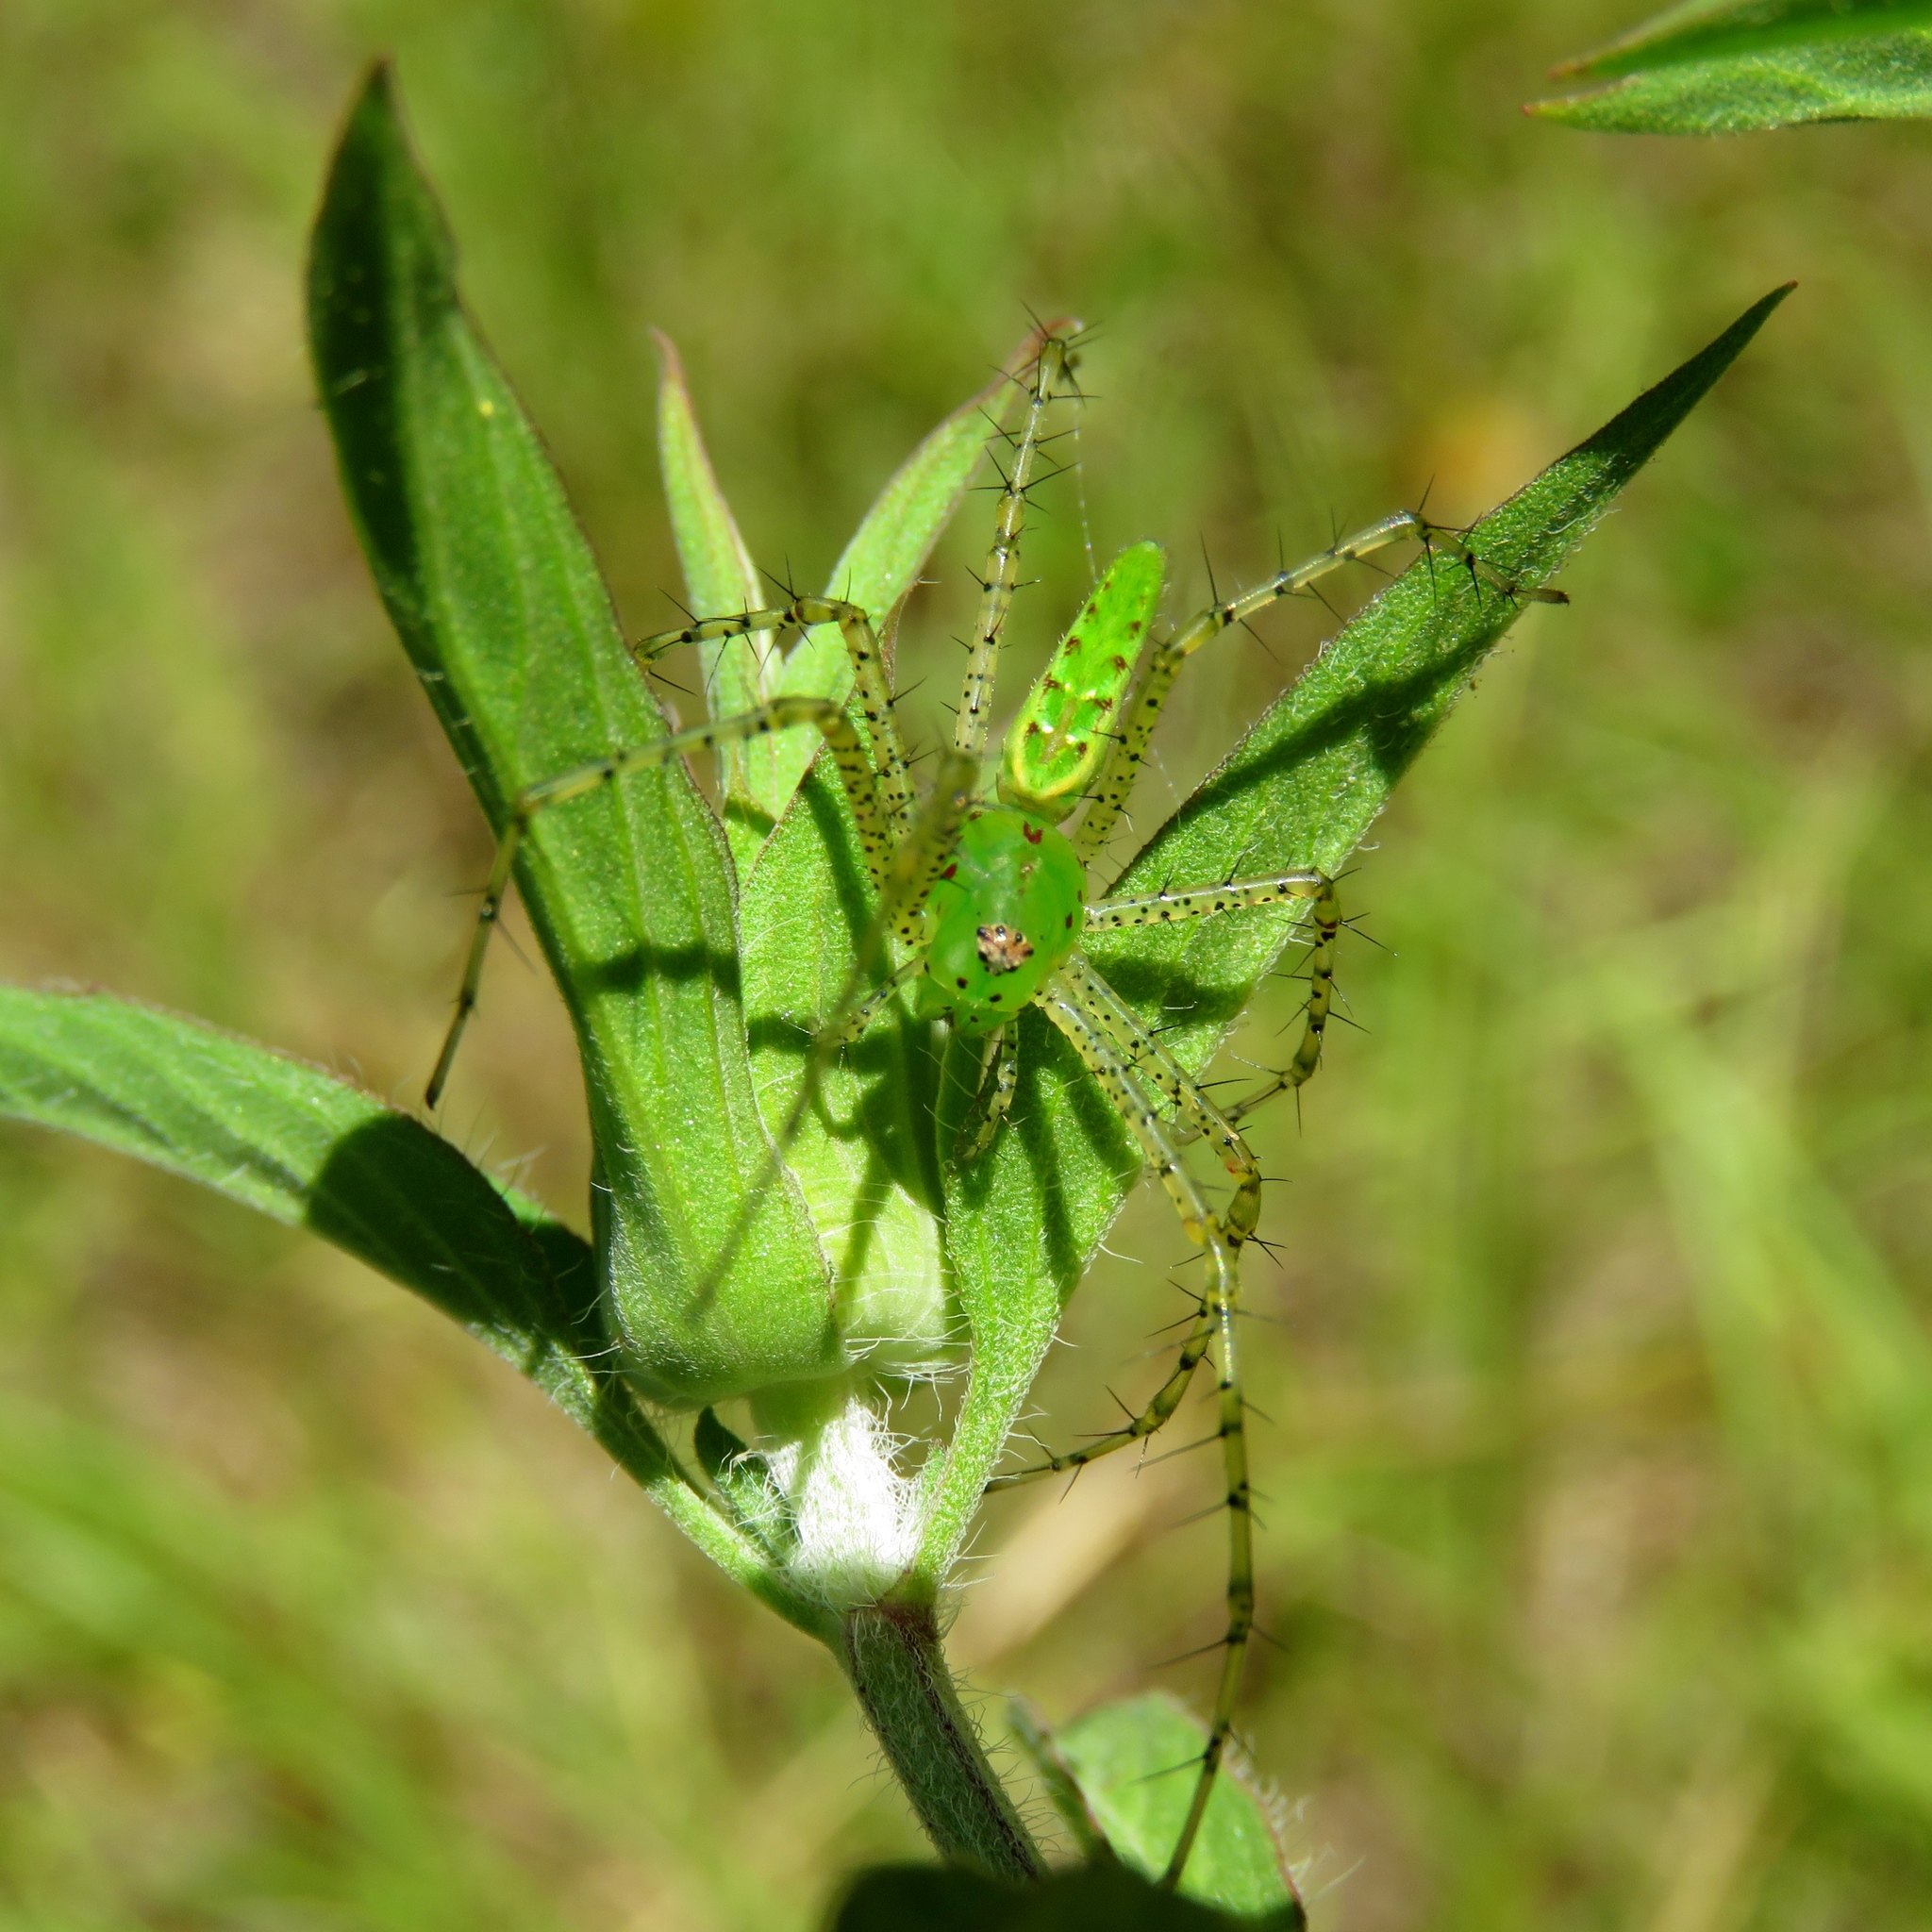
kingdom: Animalia
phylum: Arthropoda
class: Arachnida
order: Araneae
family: Oxyopidae
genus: Peucetia
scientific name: Peucetia viridans
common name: Lynx spiders
